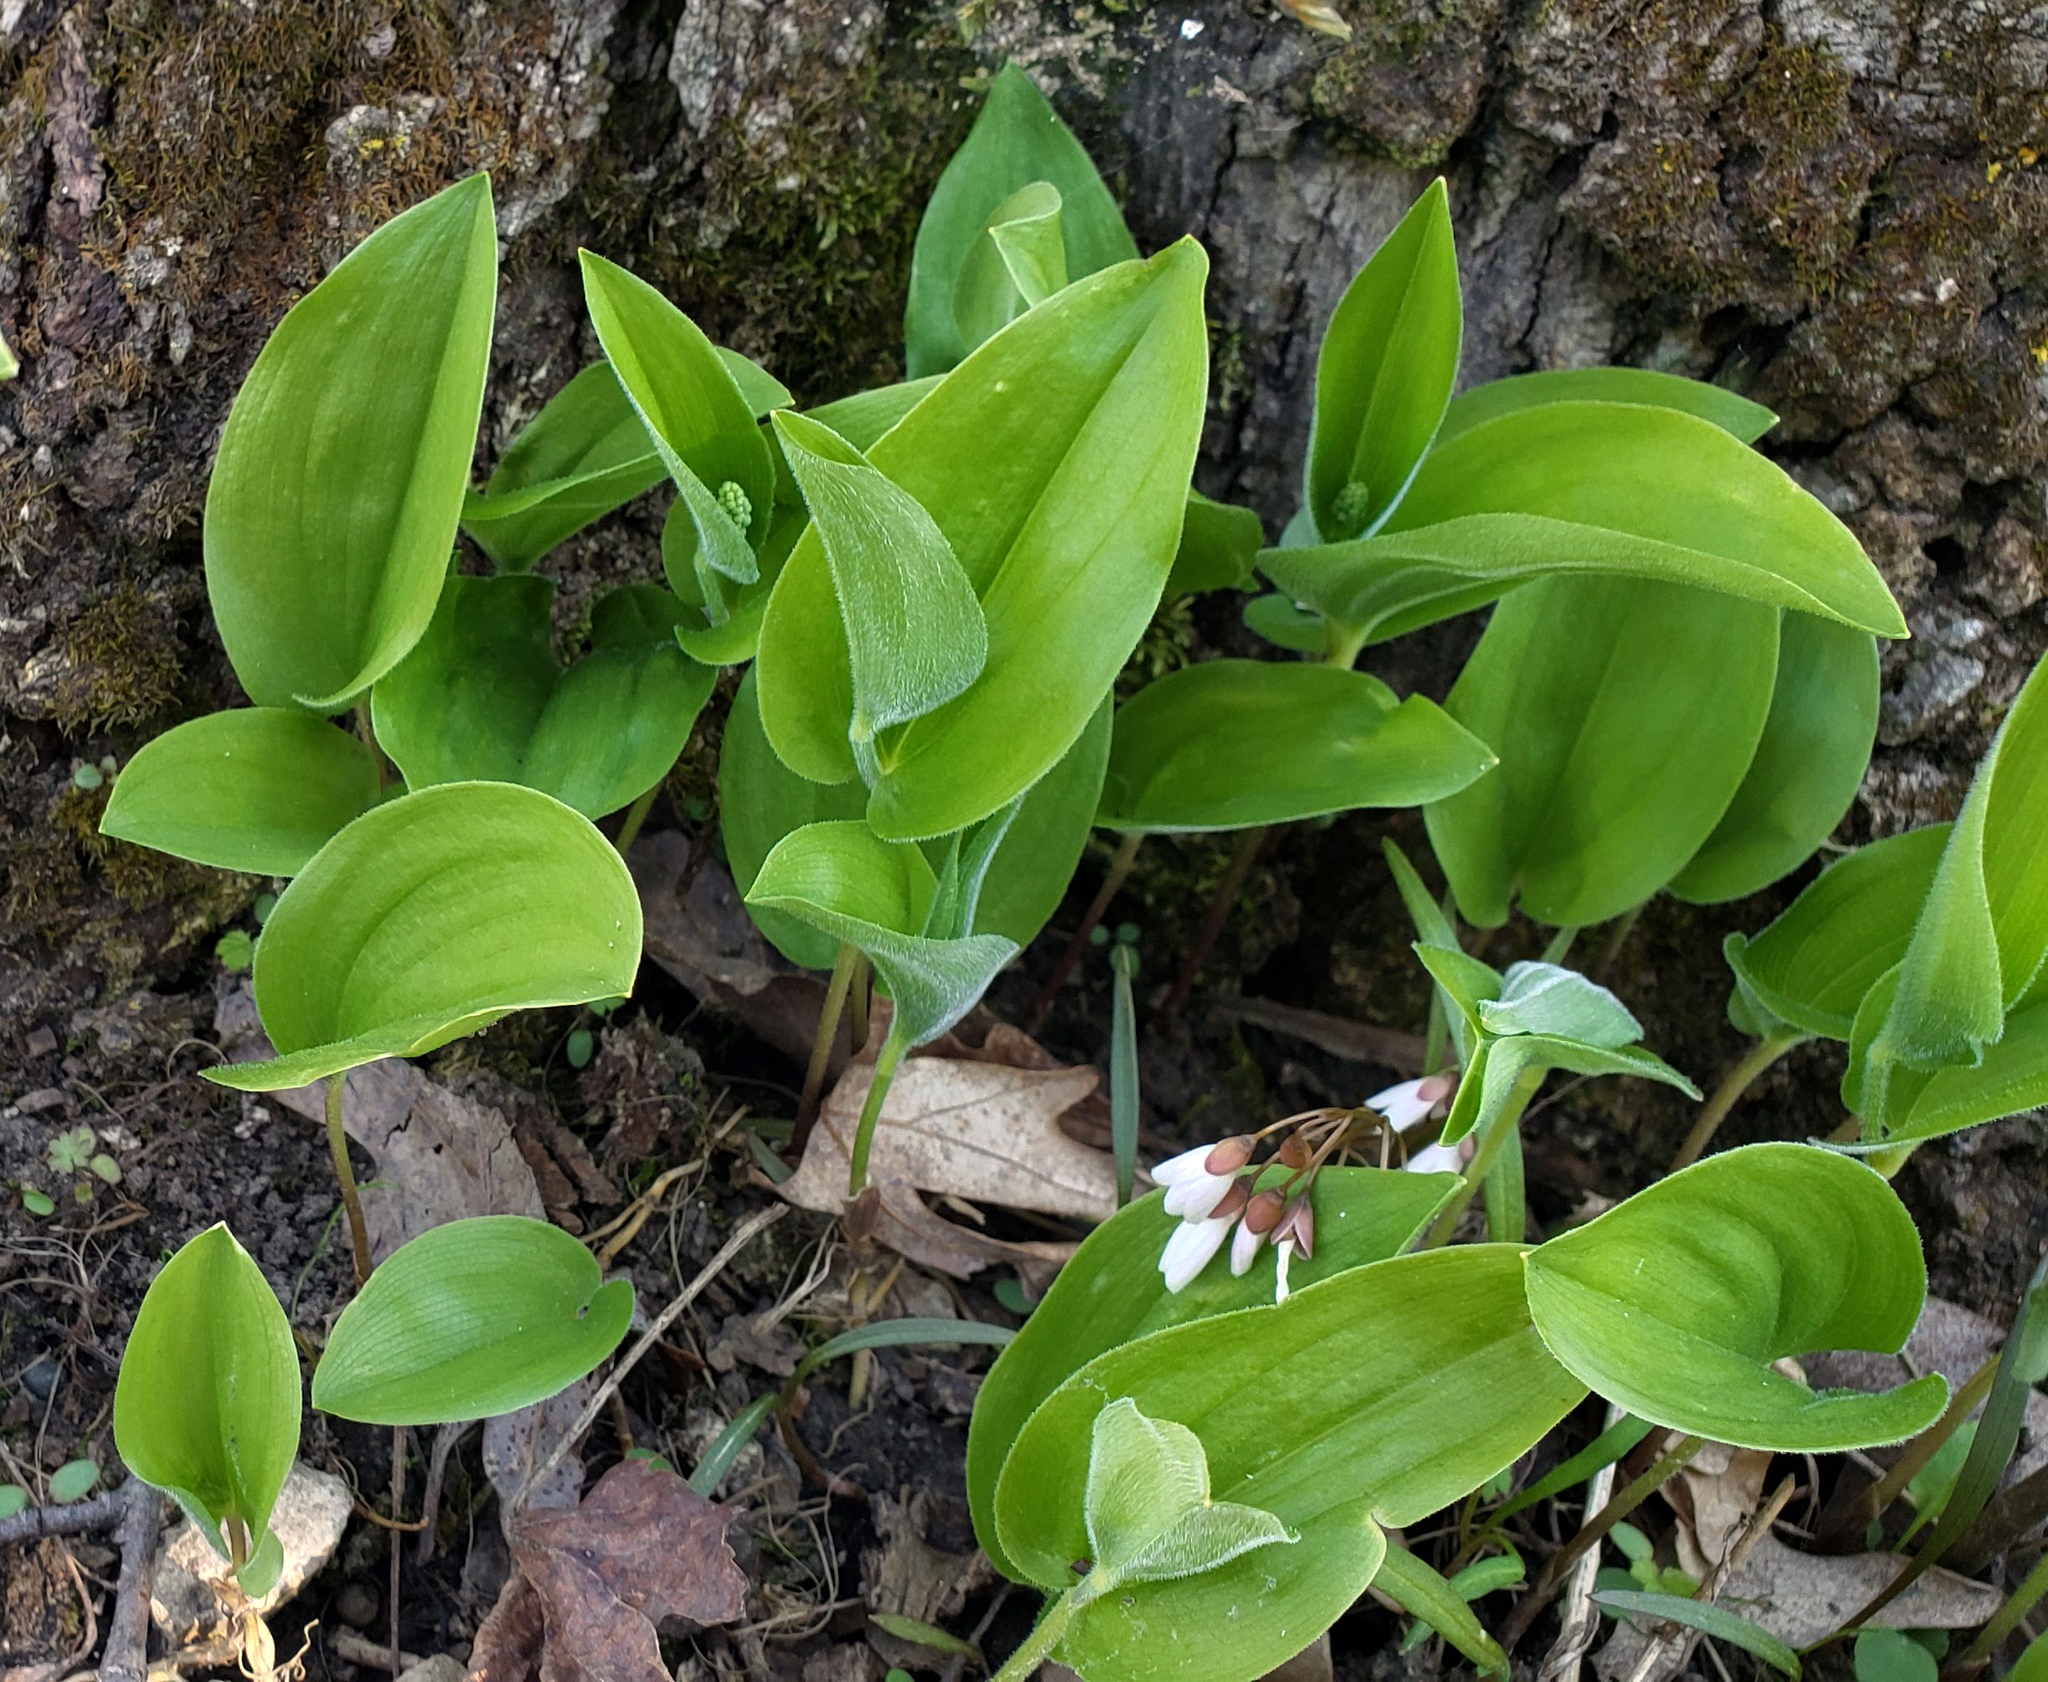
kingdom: Plantae
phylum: Tracheophyta
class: Liliopsida
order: Asparagales
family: Asparagaceae
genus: Maianthemum
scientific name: Maianthemum canadense
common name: False lily-of-the-valley
